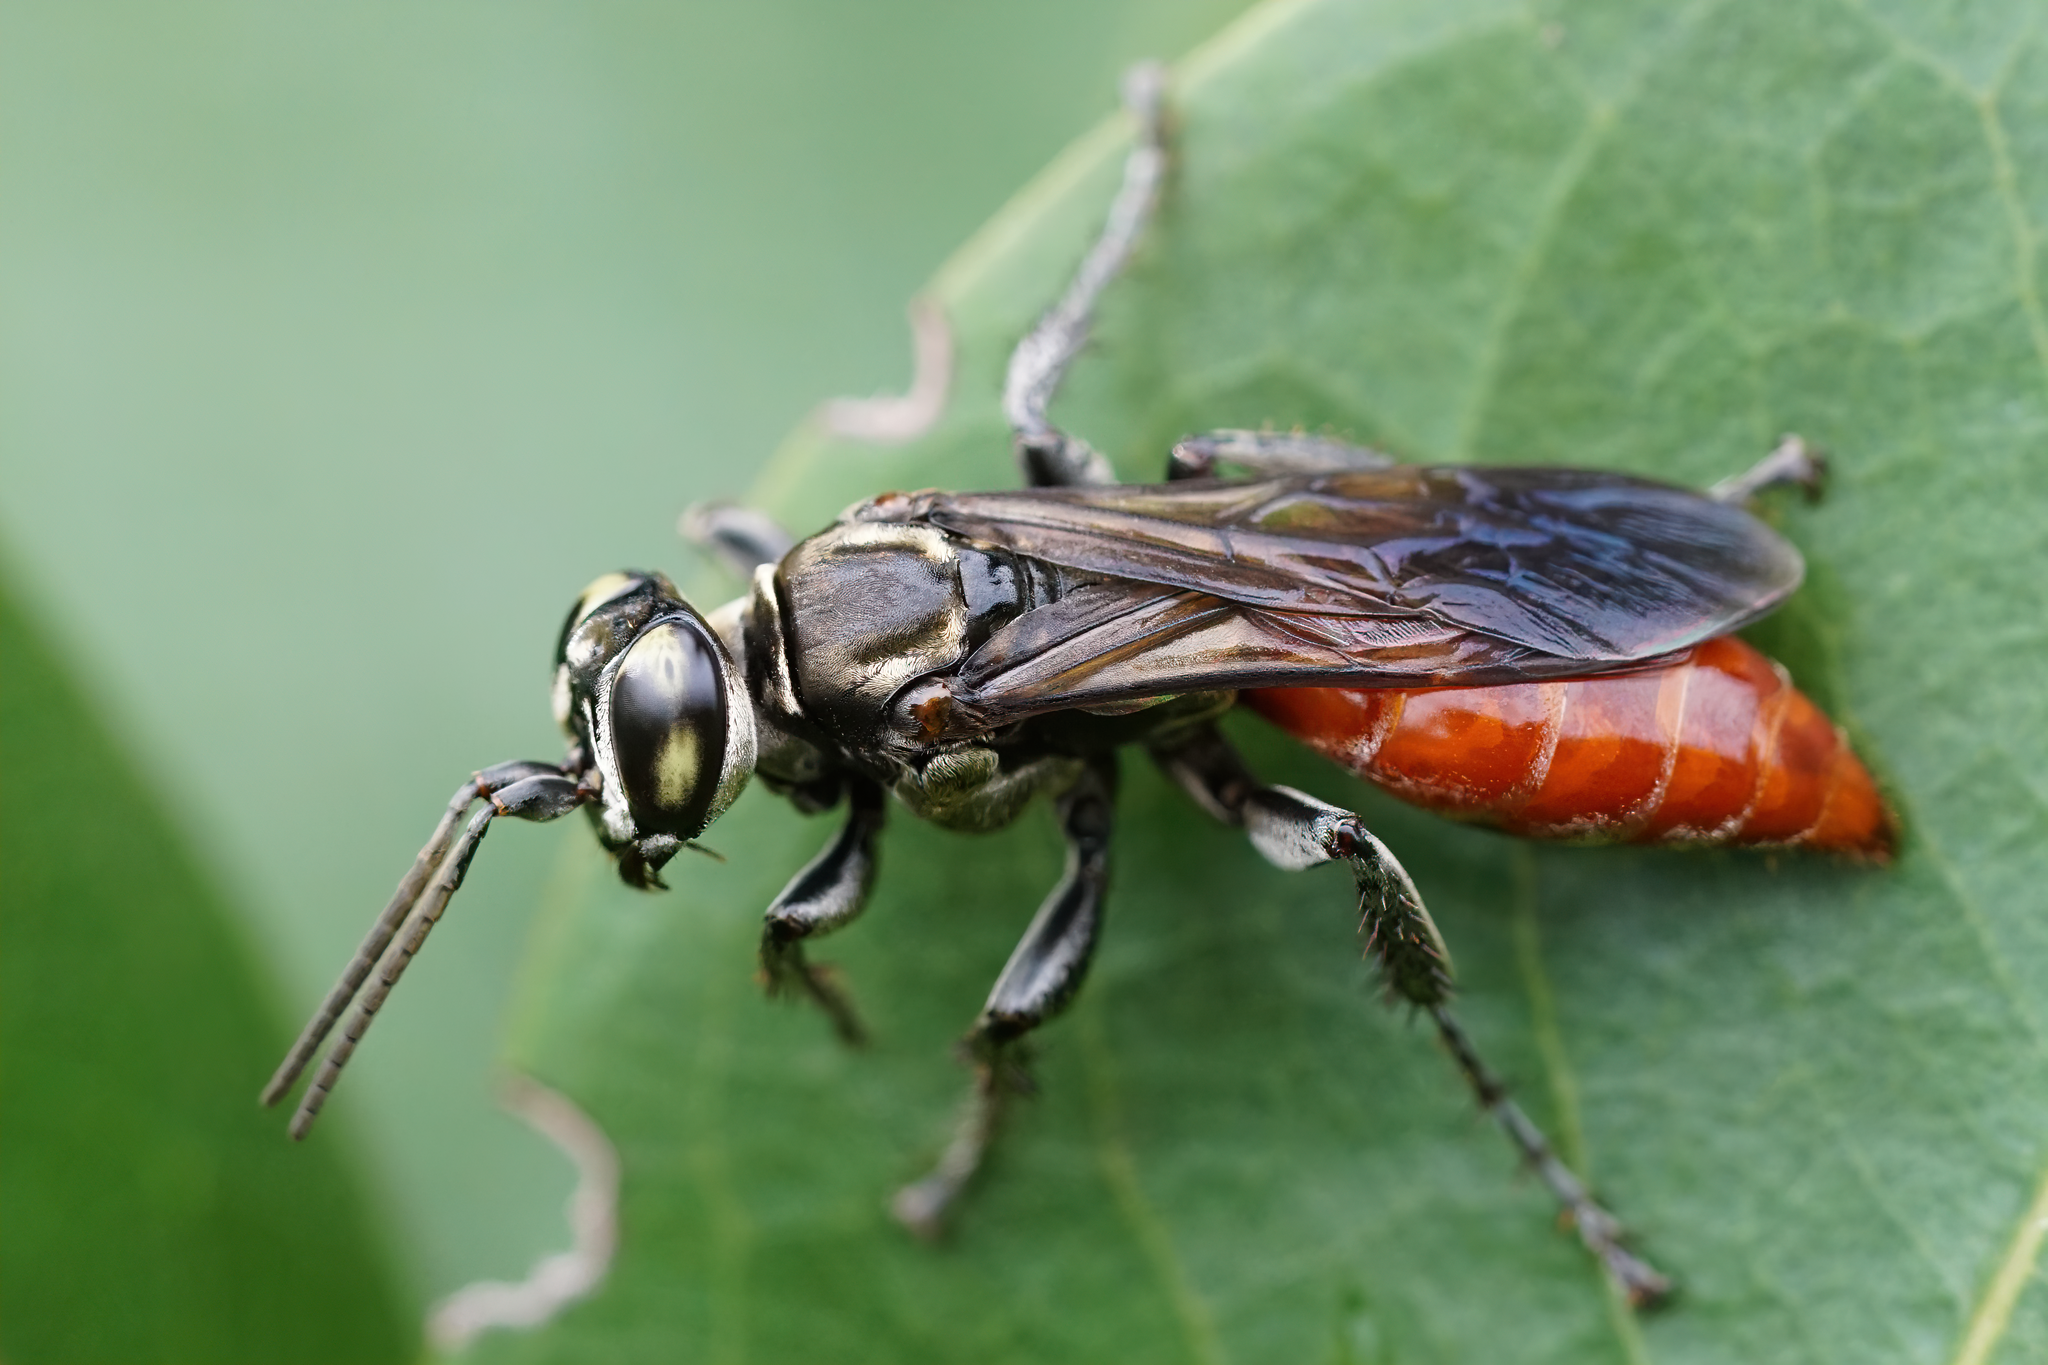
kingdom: Animalia
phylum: Arthropoda
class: Insecta
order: Hymenoptera
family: Crabronidae
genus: Larra
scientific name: Larra bicolor
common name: Wasp
